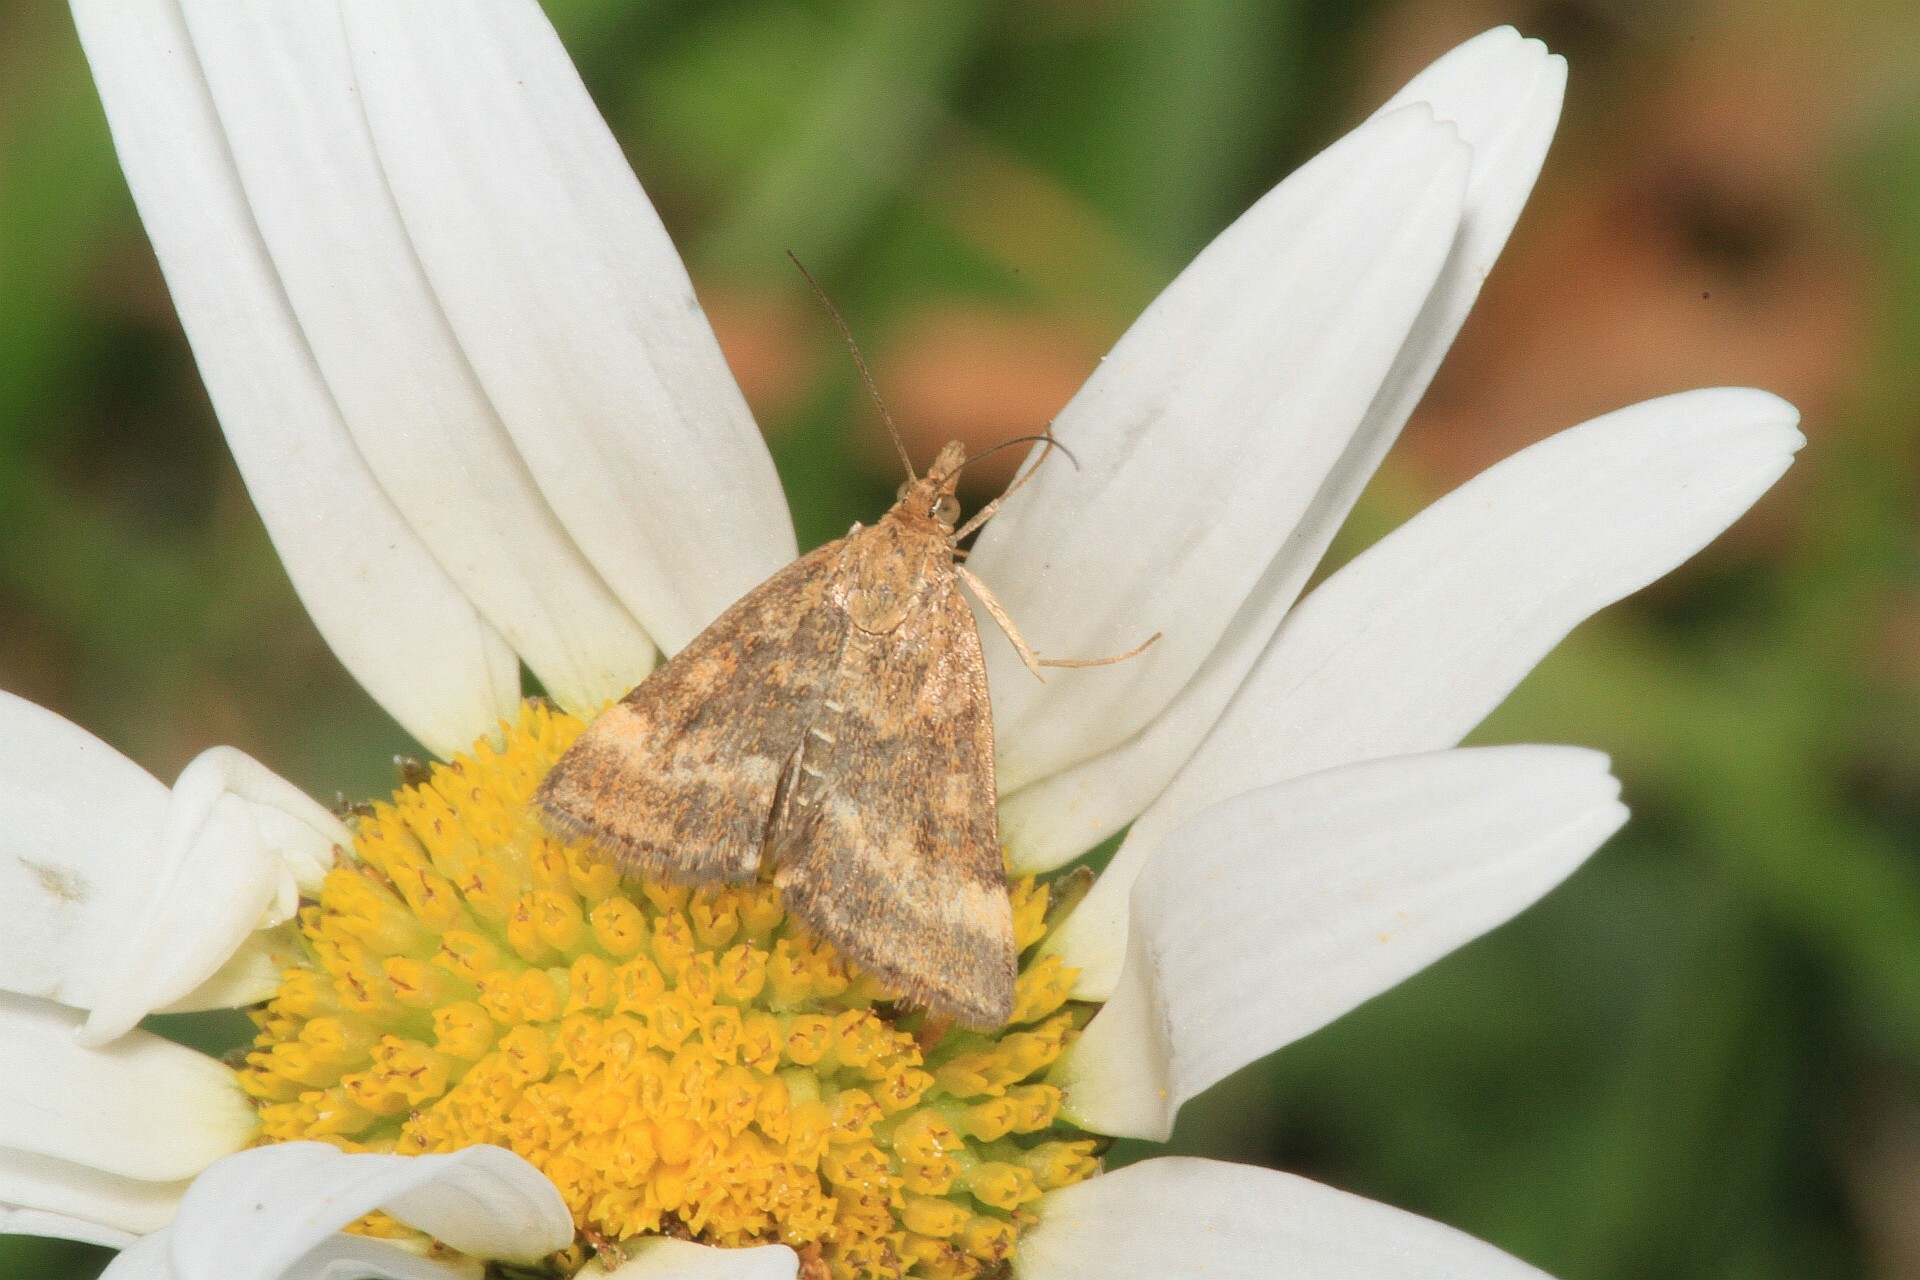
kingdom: Animalia
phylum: Arthropoda
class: Insecta
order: Lepidoptera
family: Crambidae
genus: Pyrausta
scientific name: Pyrausta despicata
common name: Straw-barred pearl
